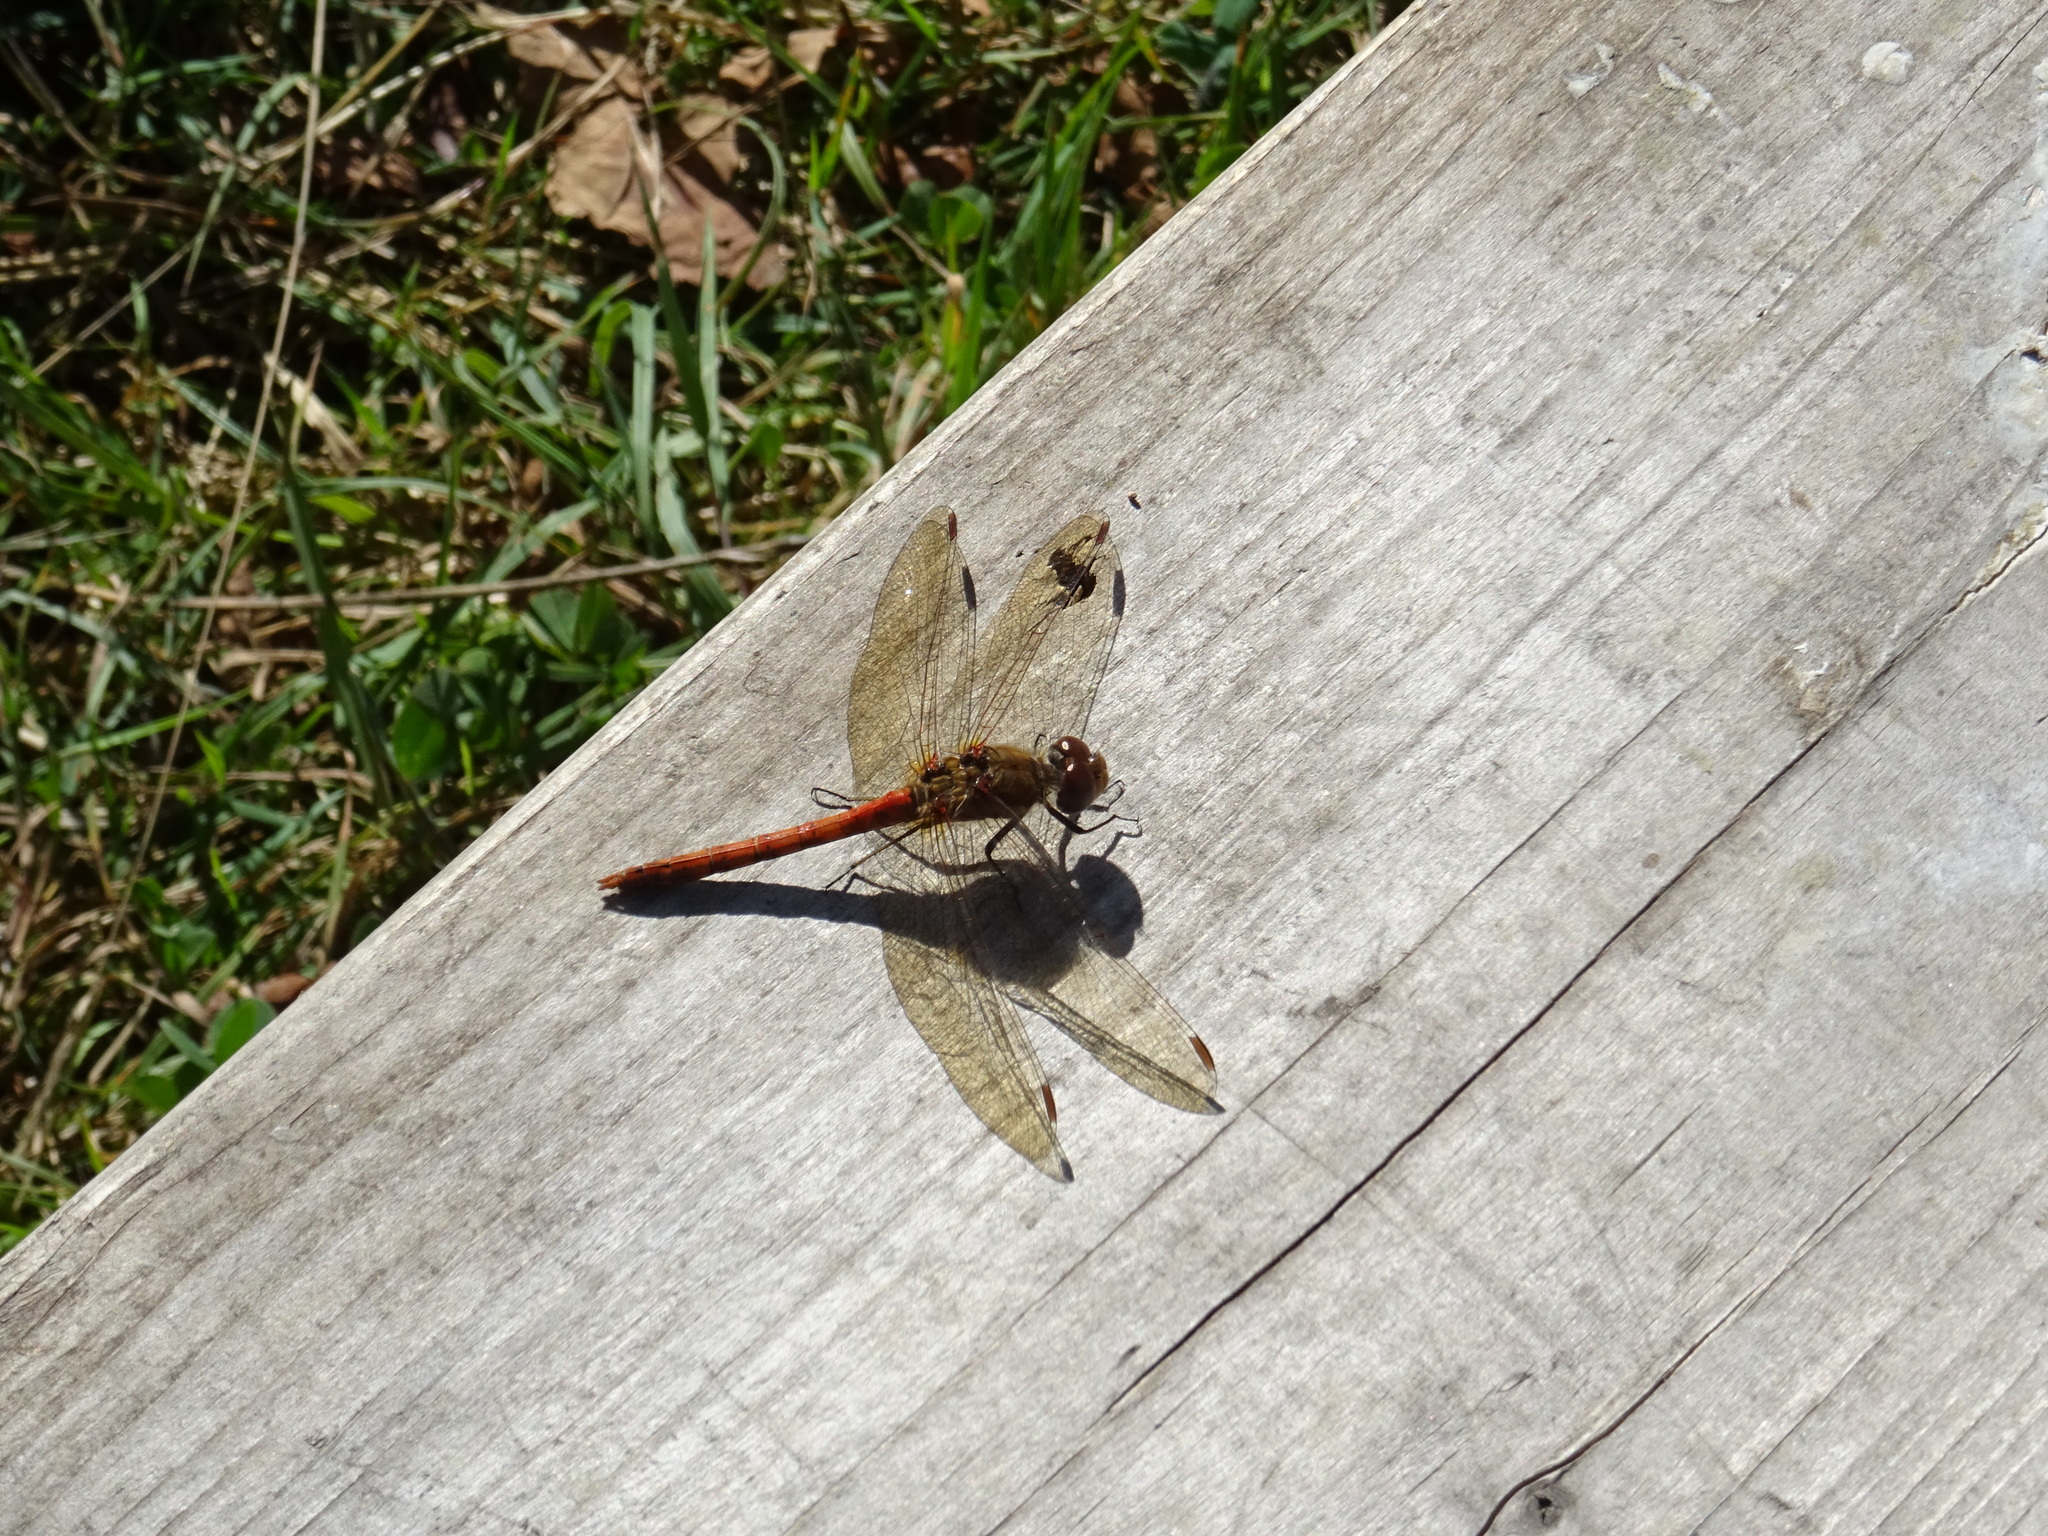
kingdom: Animalia
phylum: Arthropoda
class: Insecta
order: Odonata
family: Libellulidae
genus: Sympetrum
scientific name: Sympetrum striolatum
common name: Common darter
